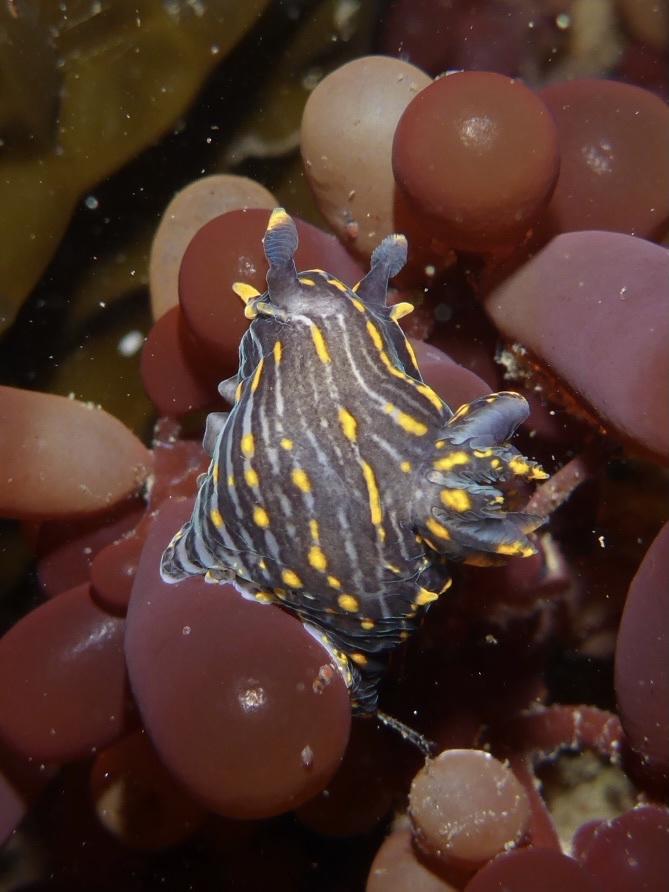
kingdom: Animalia
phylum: Mollusca
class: Gastropoda
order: Nudibranchia
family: Polyceridae
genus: Polycera
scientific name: Polycera atra
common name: Orange-spike polycera
